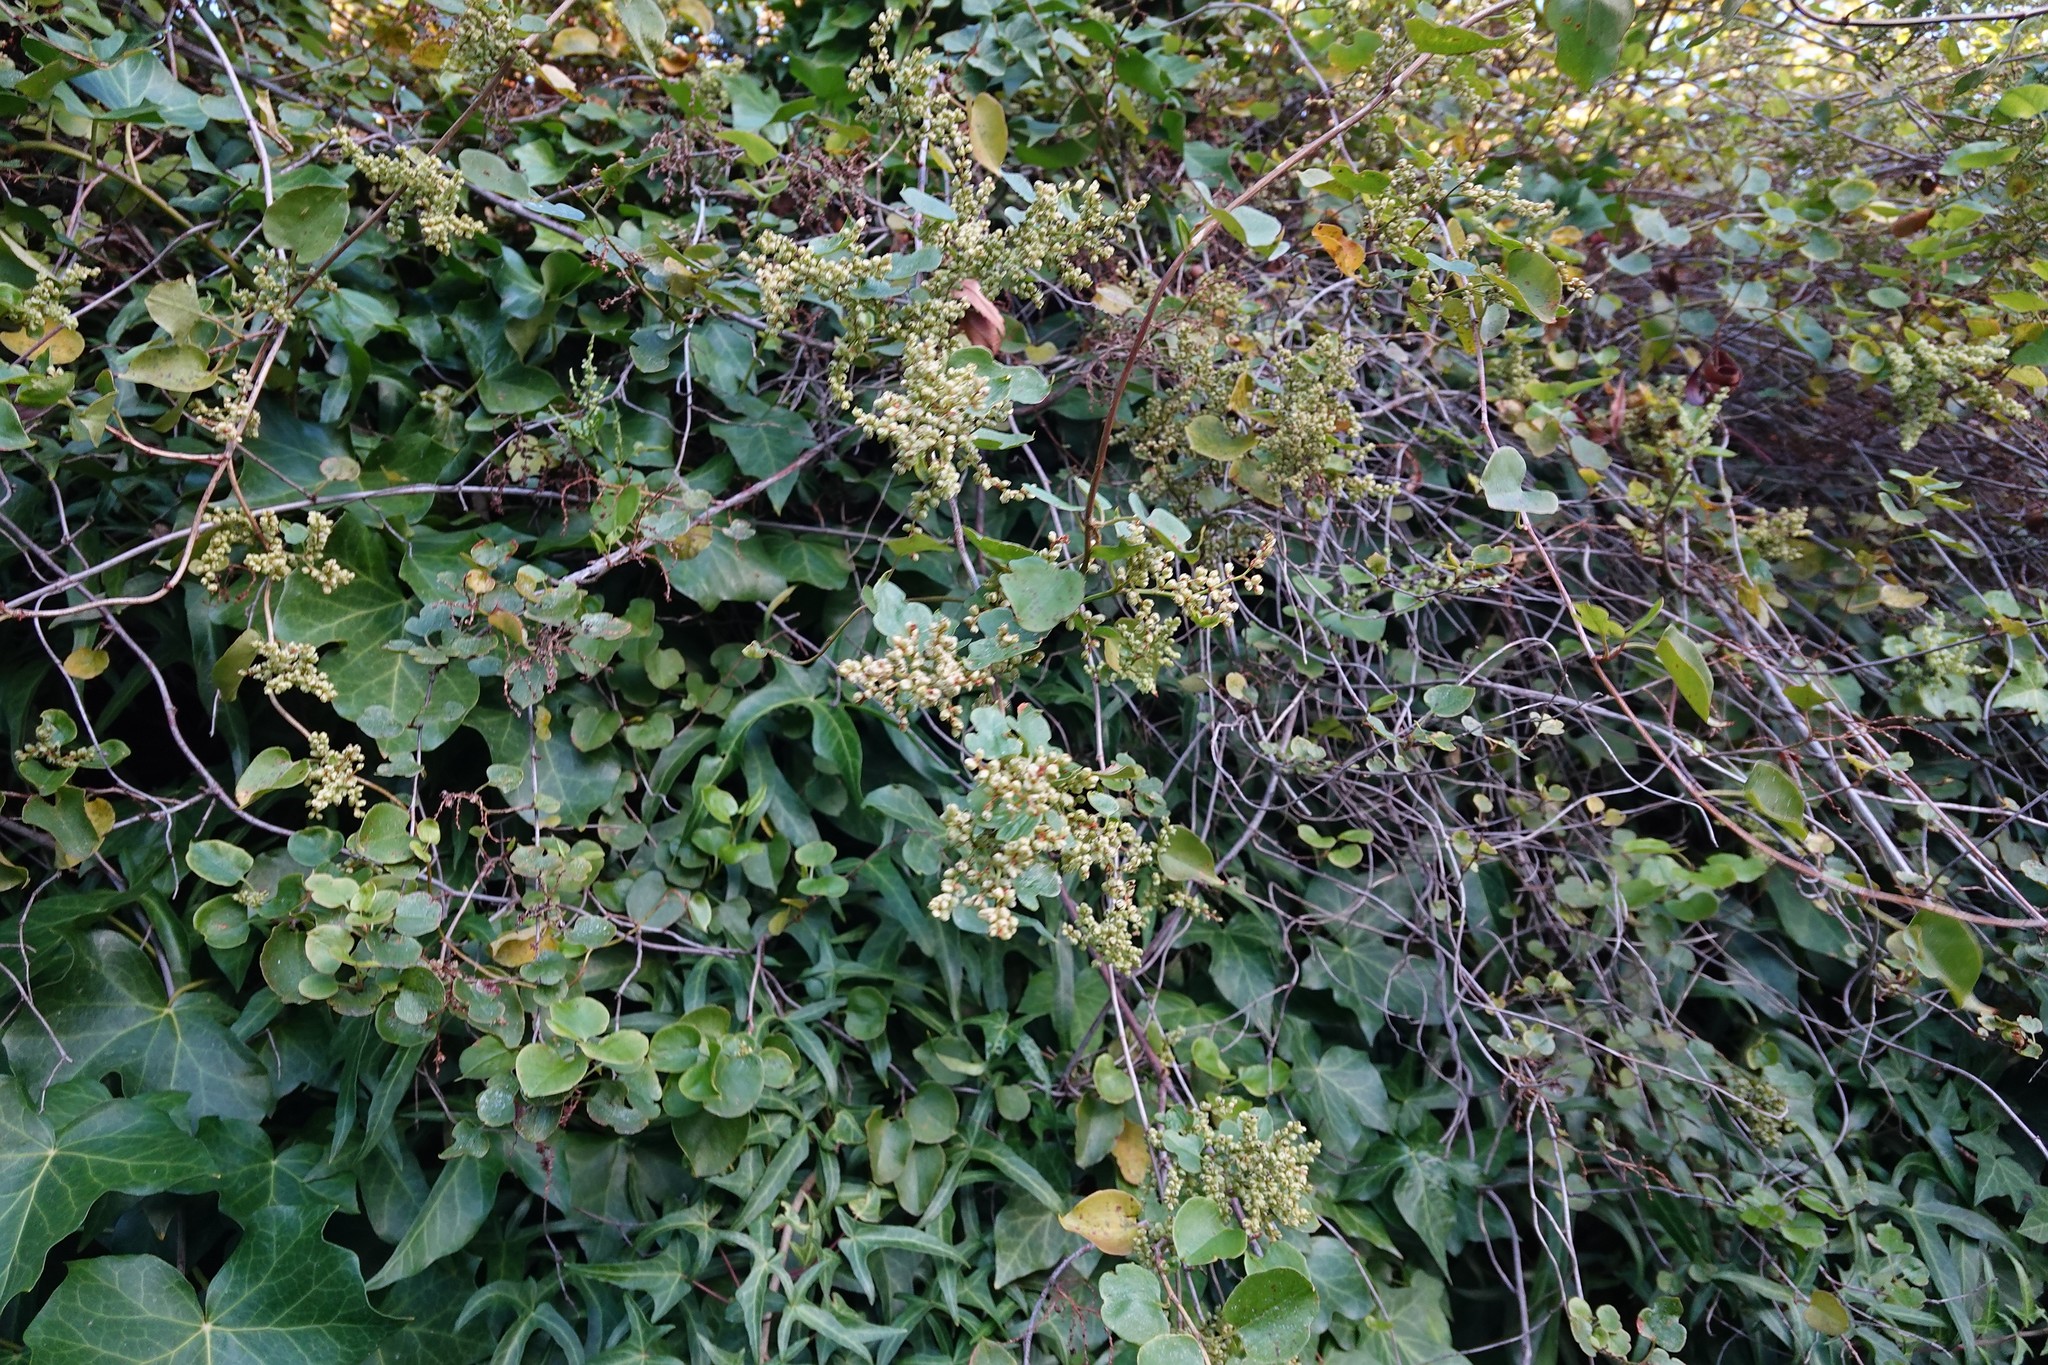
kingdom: Plantae
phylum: Tracheophyta
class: Magnoliopsida
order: Caryophyllales
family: Polygonaceae
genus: Muehlenbeckia
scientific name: Muehlenbeckia australis
